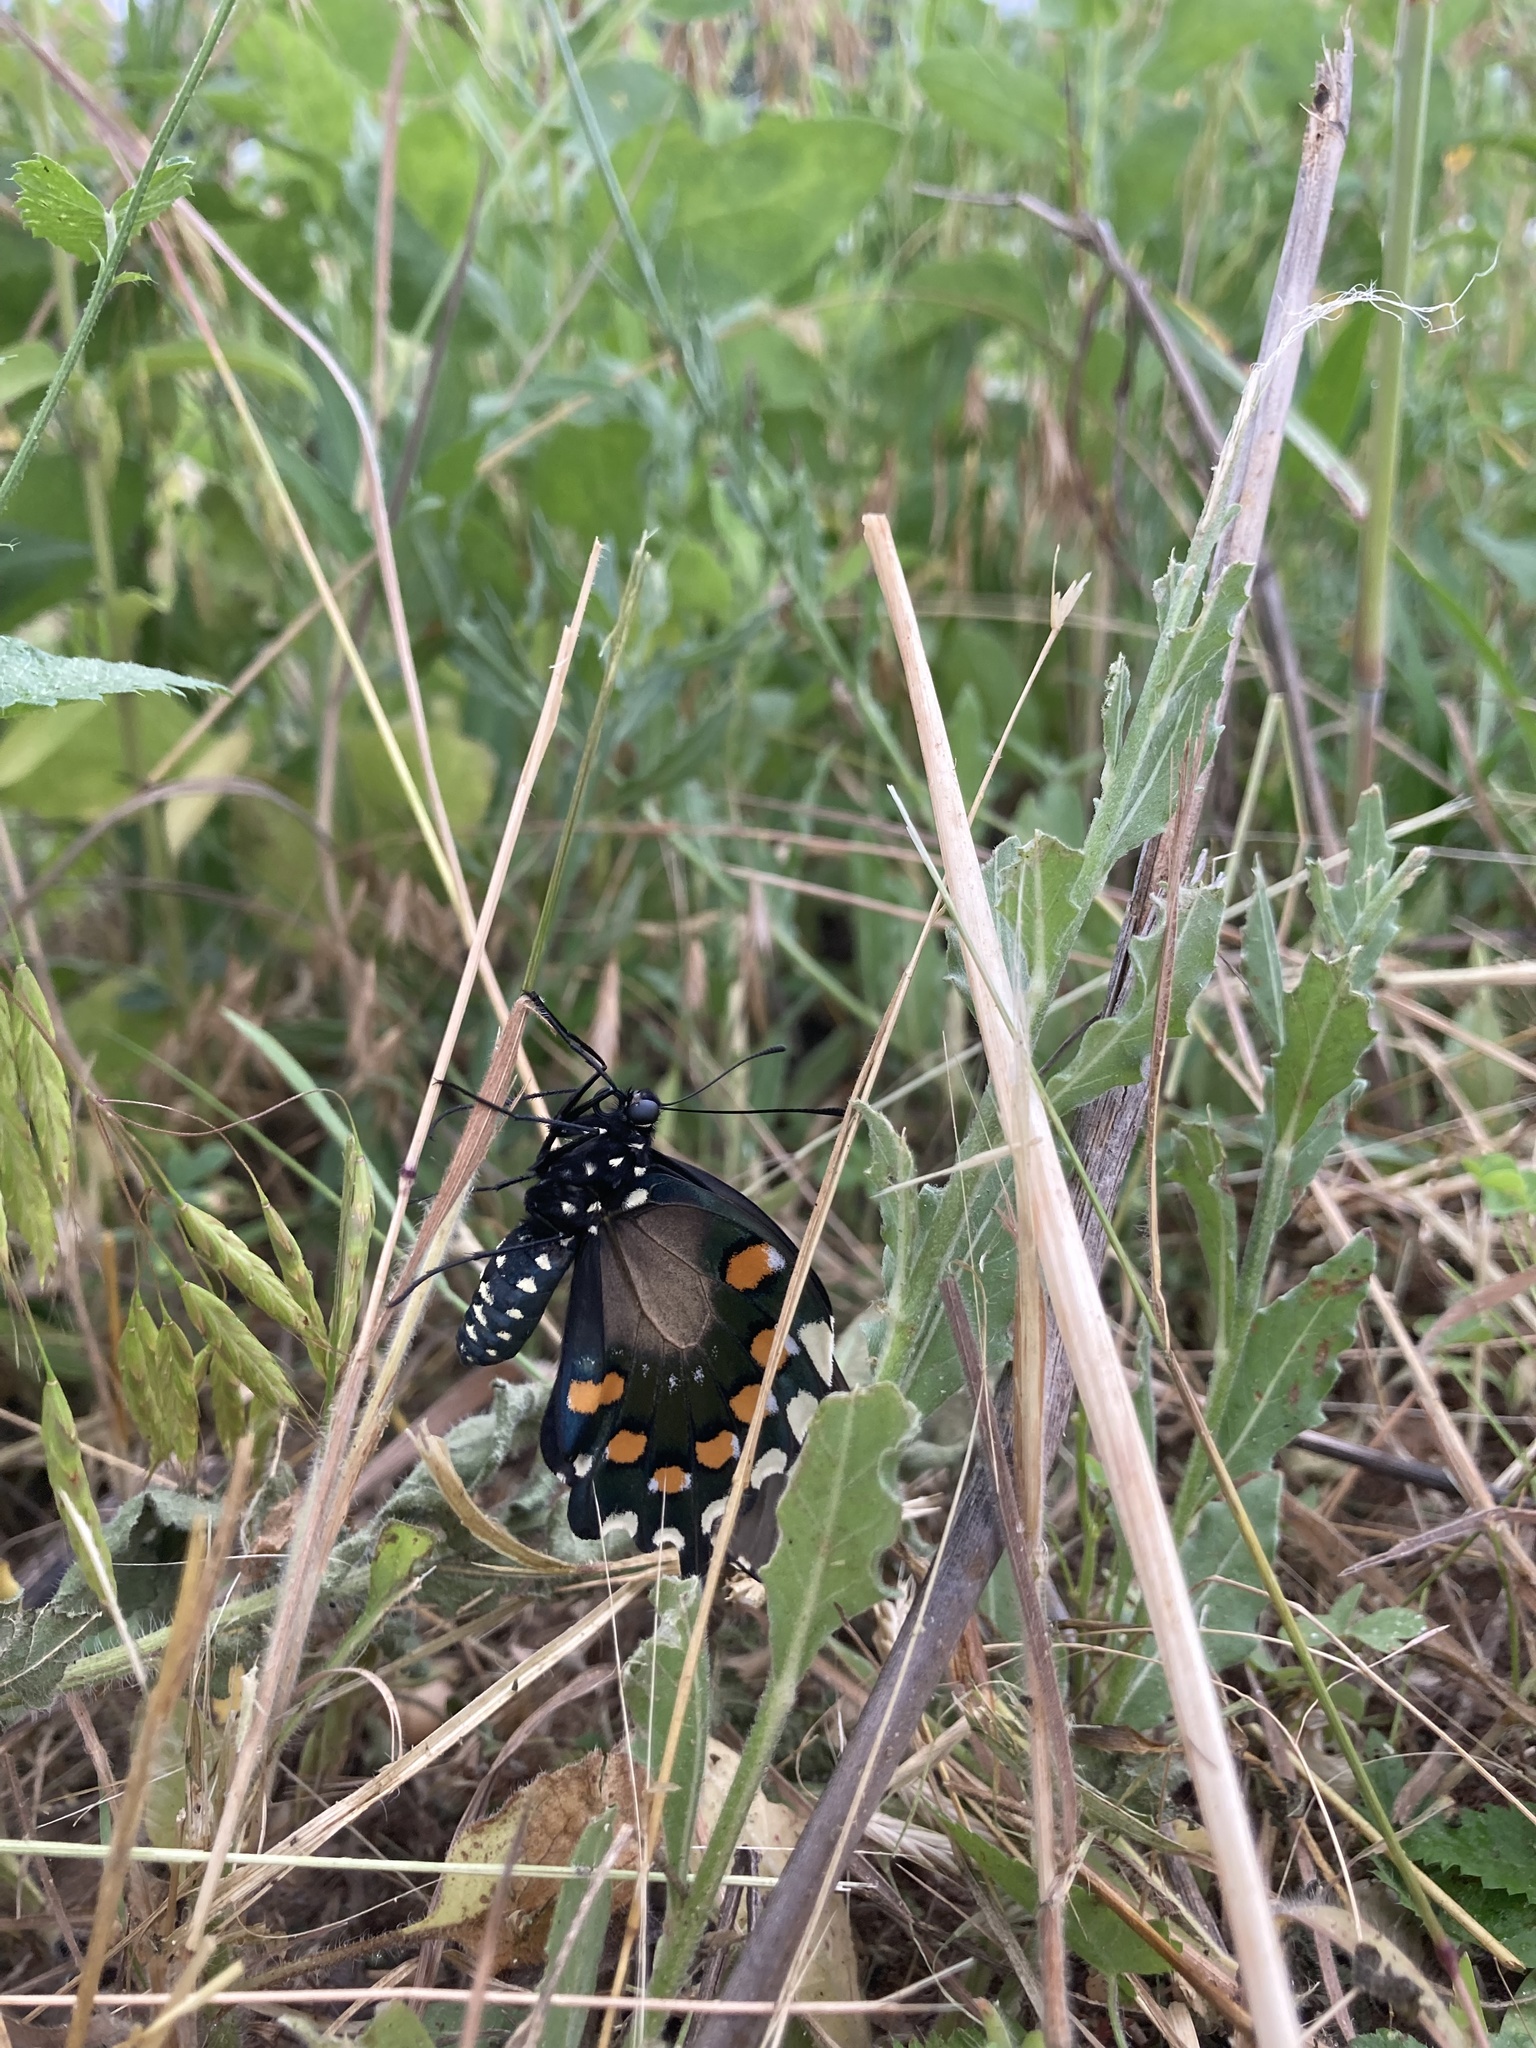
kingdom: Animalia
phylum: Arthropoda
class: Insecta
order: Lepidoptera
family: Papilionidae
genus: Battus
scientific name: Battus philenor
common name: Pipevine swallowtail
